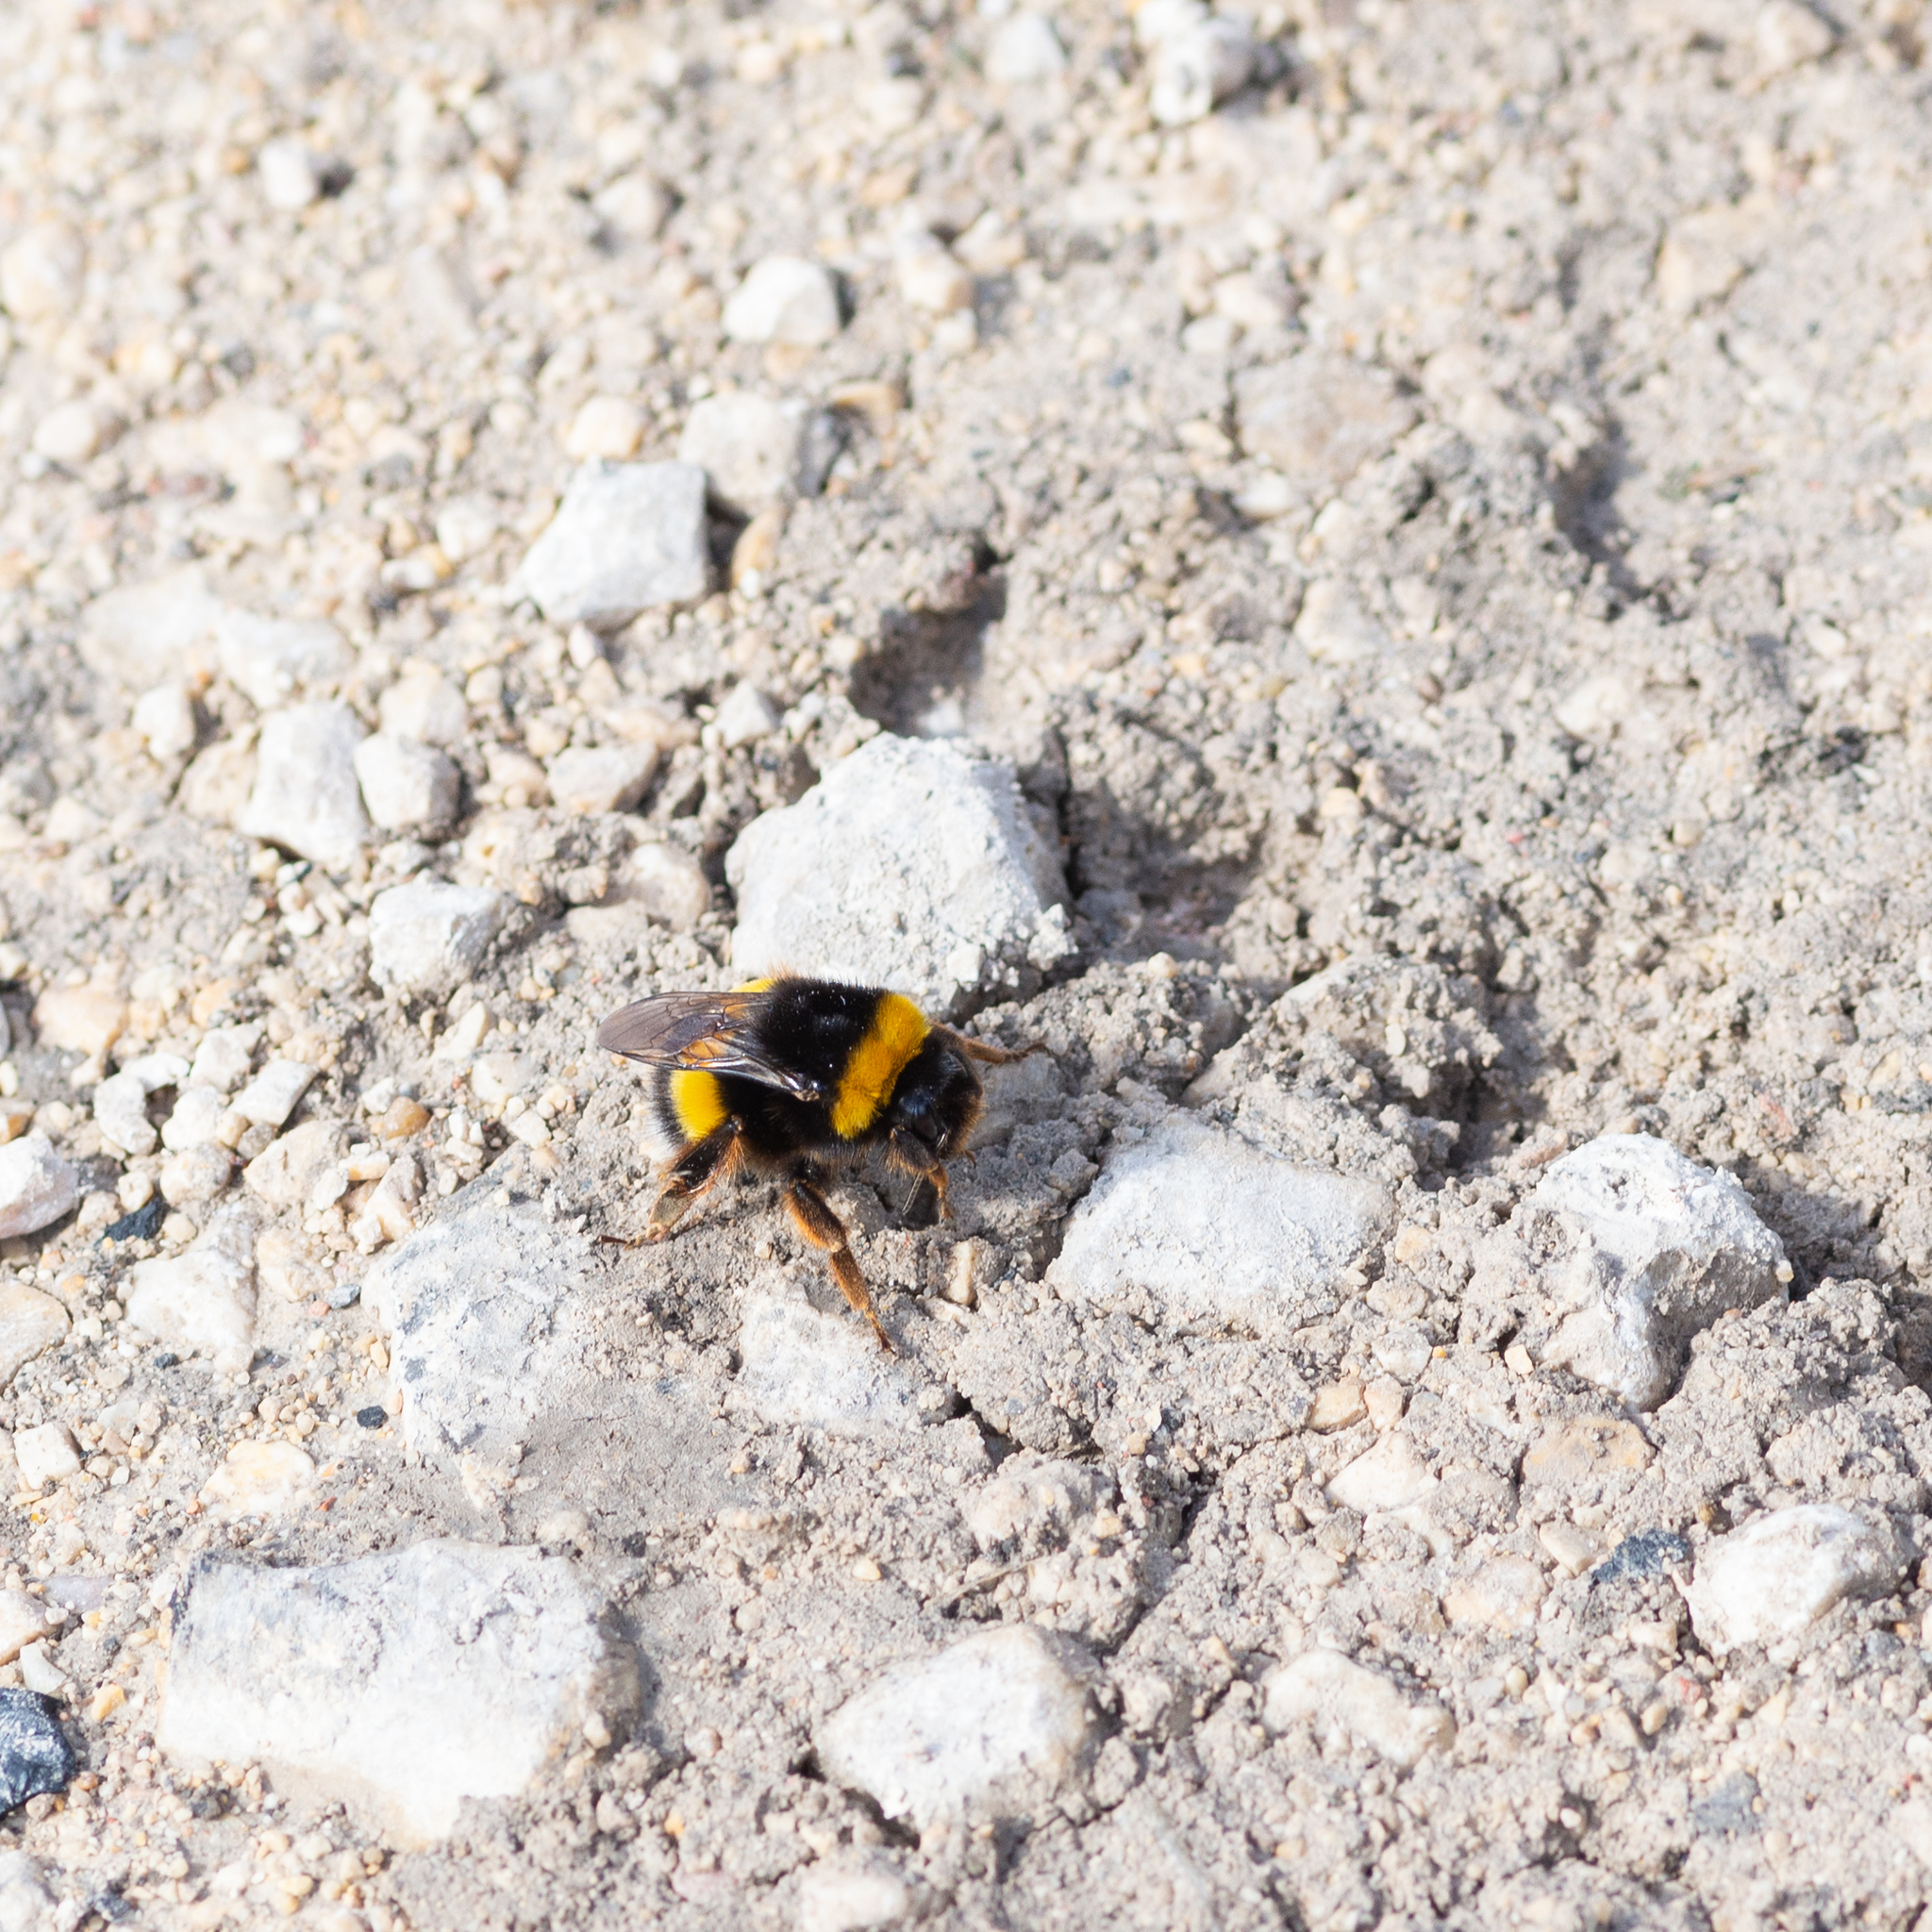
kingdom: Animalia
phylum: Arthropoda
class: Insecta
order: Hymenoptera
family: Apidae
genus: Bombus
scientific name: Bombus terrestris
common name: Buff-tailed bumblebee
